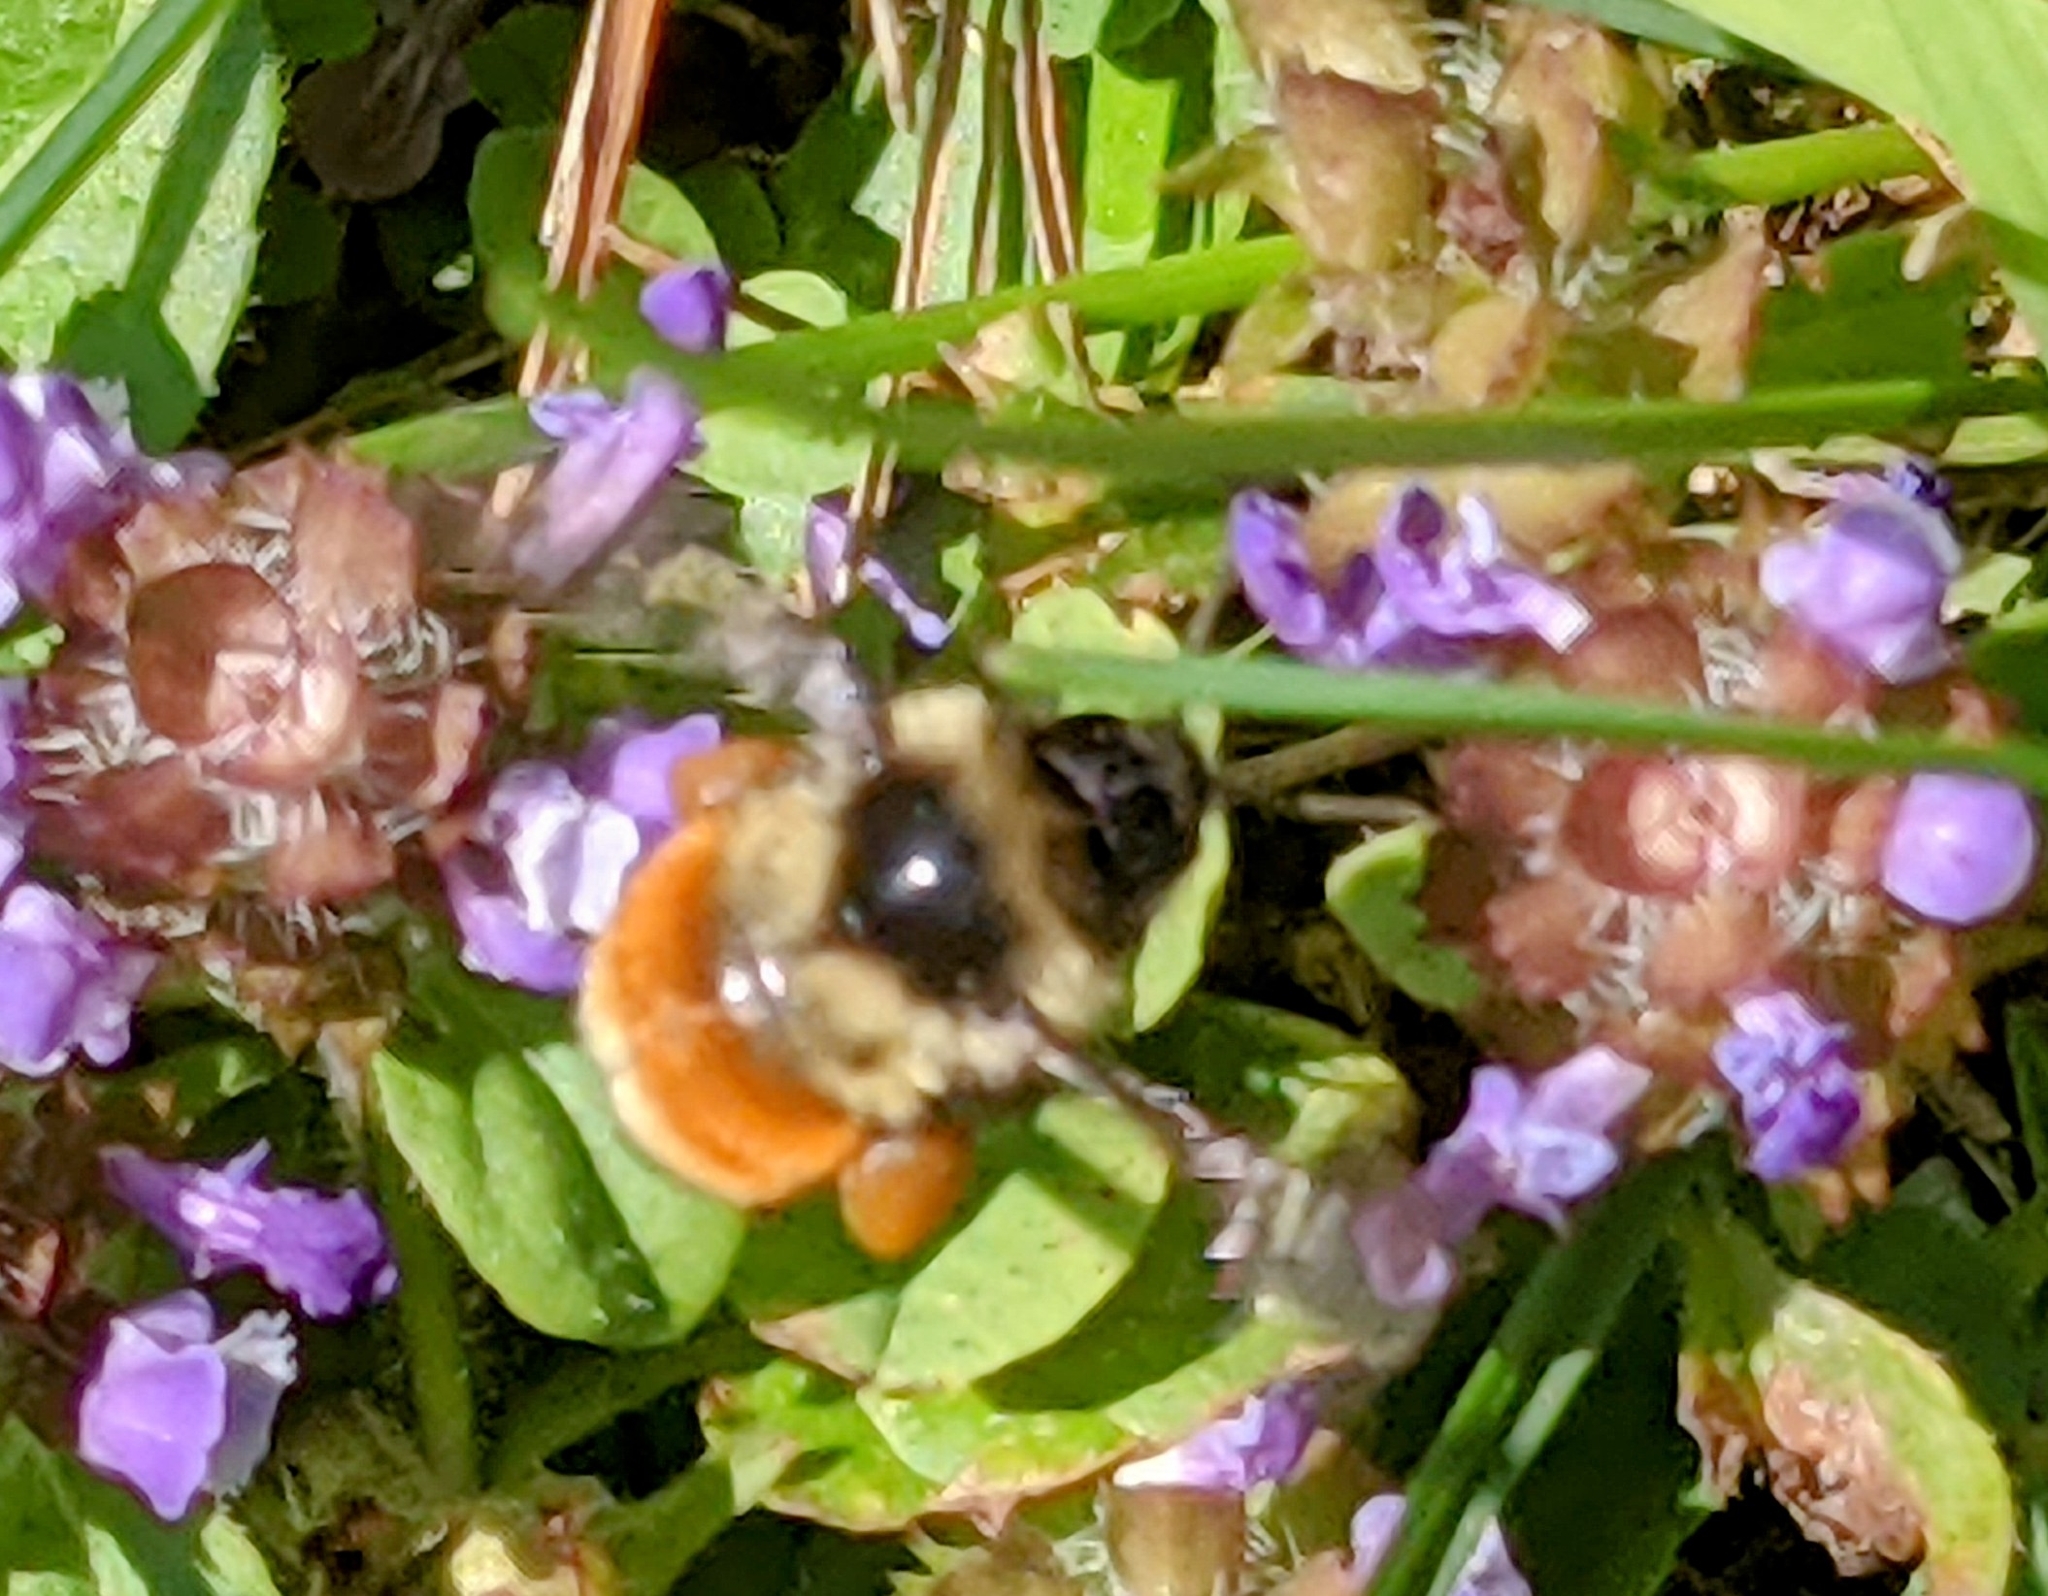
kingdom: Animalia
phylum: Arthropoda
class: Insecta
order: Hymenoptera
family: Apidae
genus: Bombus
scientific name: Bombus ternarius
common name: Tri-colored bumble bee
